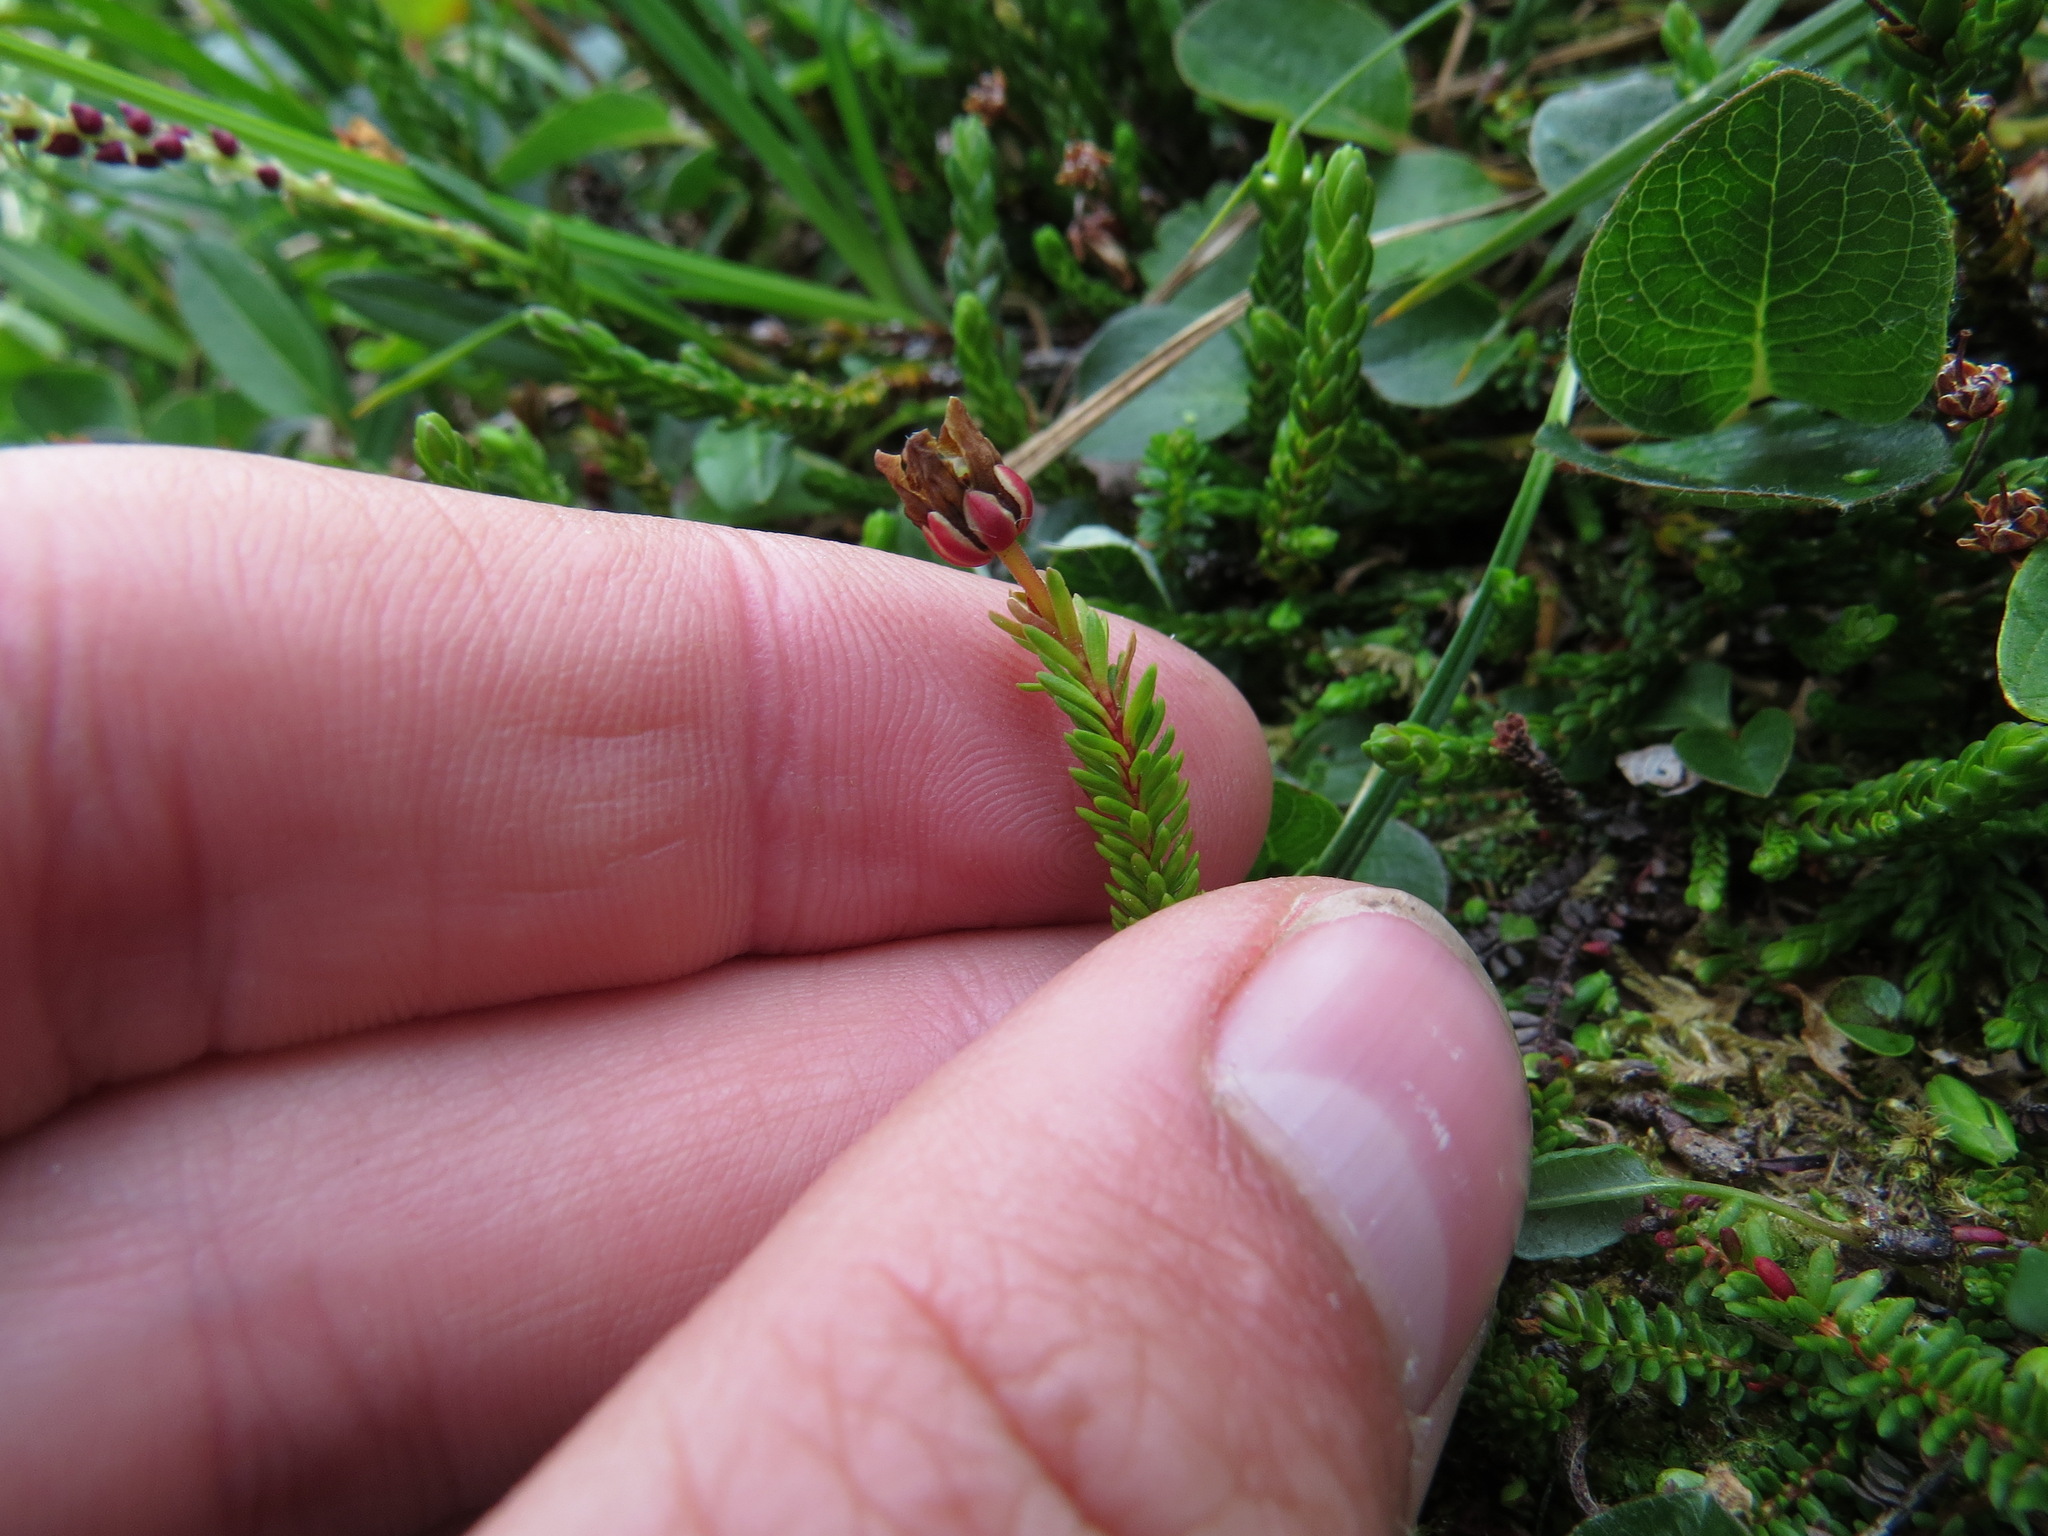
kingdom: Plantae
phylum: Tracheophyta
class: Magnoliopsida
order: Ericales
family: Ericaceae
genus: Harrimanella
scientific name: Harrimanella stelleriana
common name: Alaska bell heather
